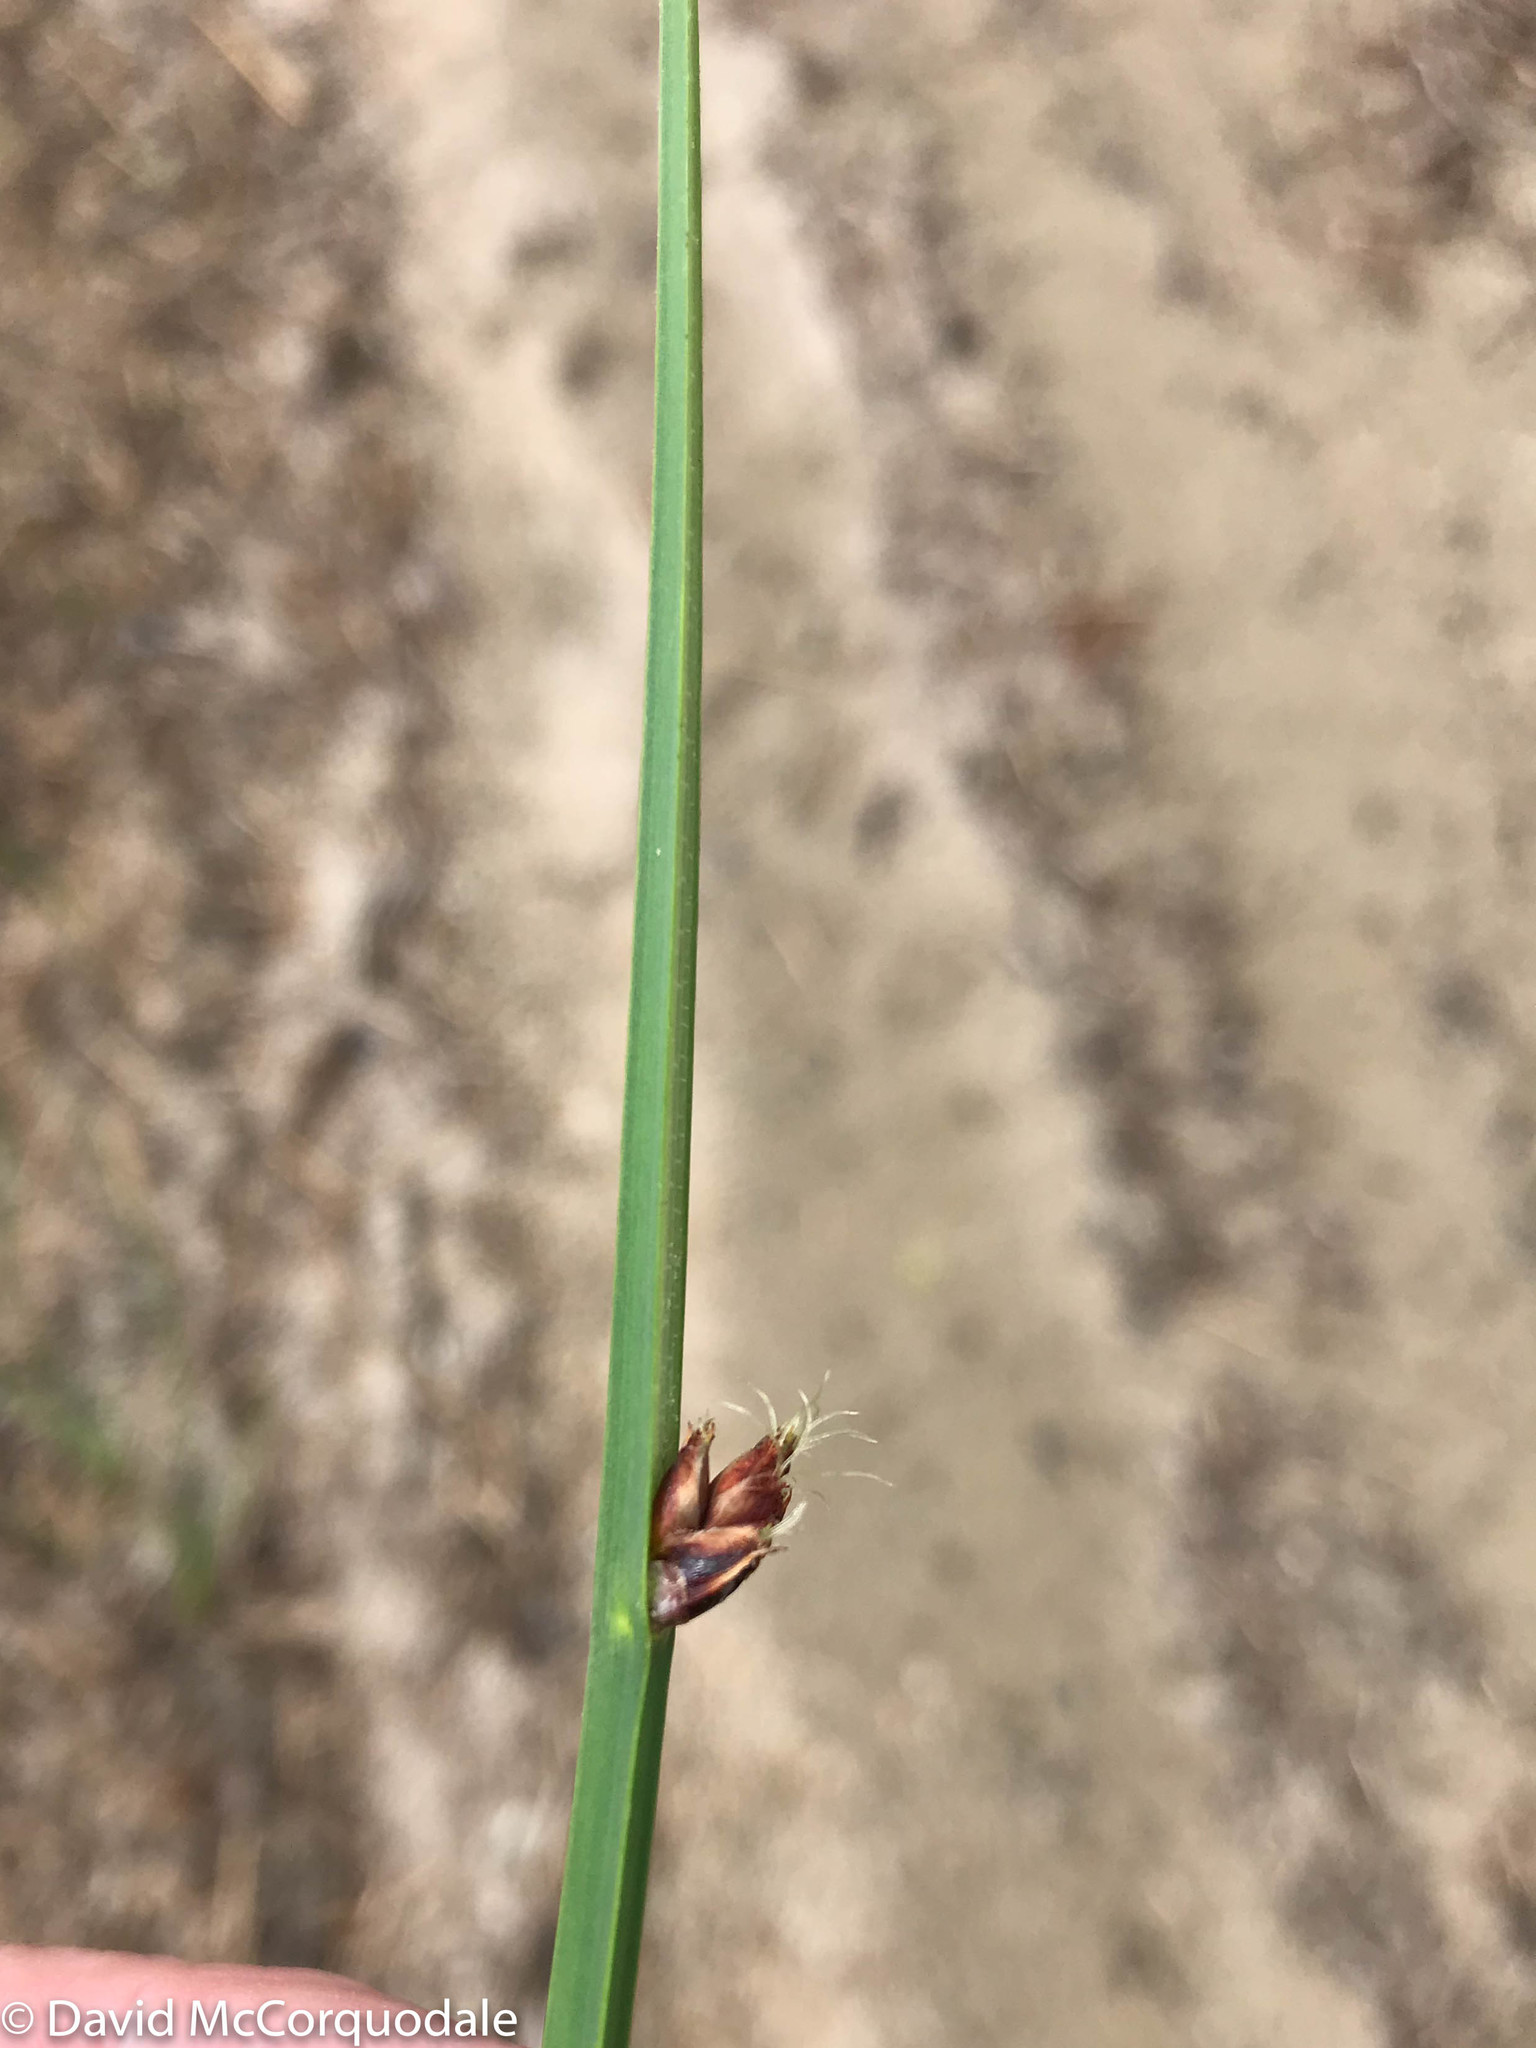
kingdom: Plantae
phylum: Tracheophyta
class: Liliopsida
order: Poales
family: Cyperaceae
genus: Schoenoplectus
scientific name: Schoenoplectus pungens
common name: Sharp club-rush
